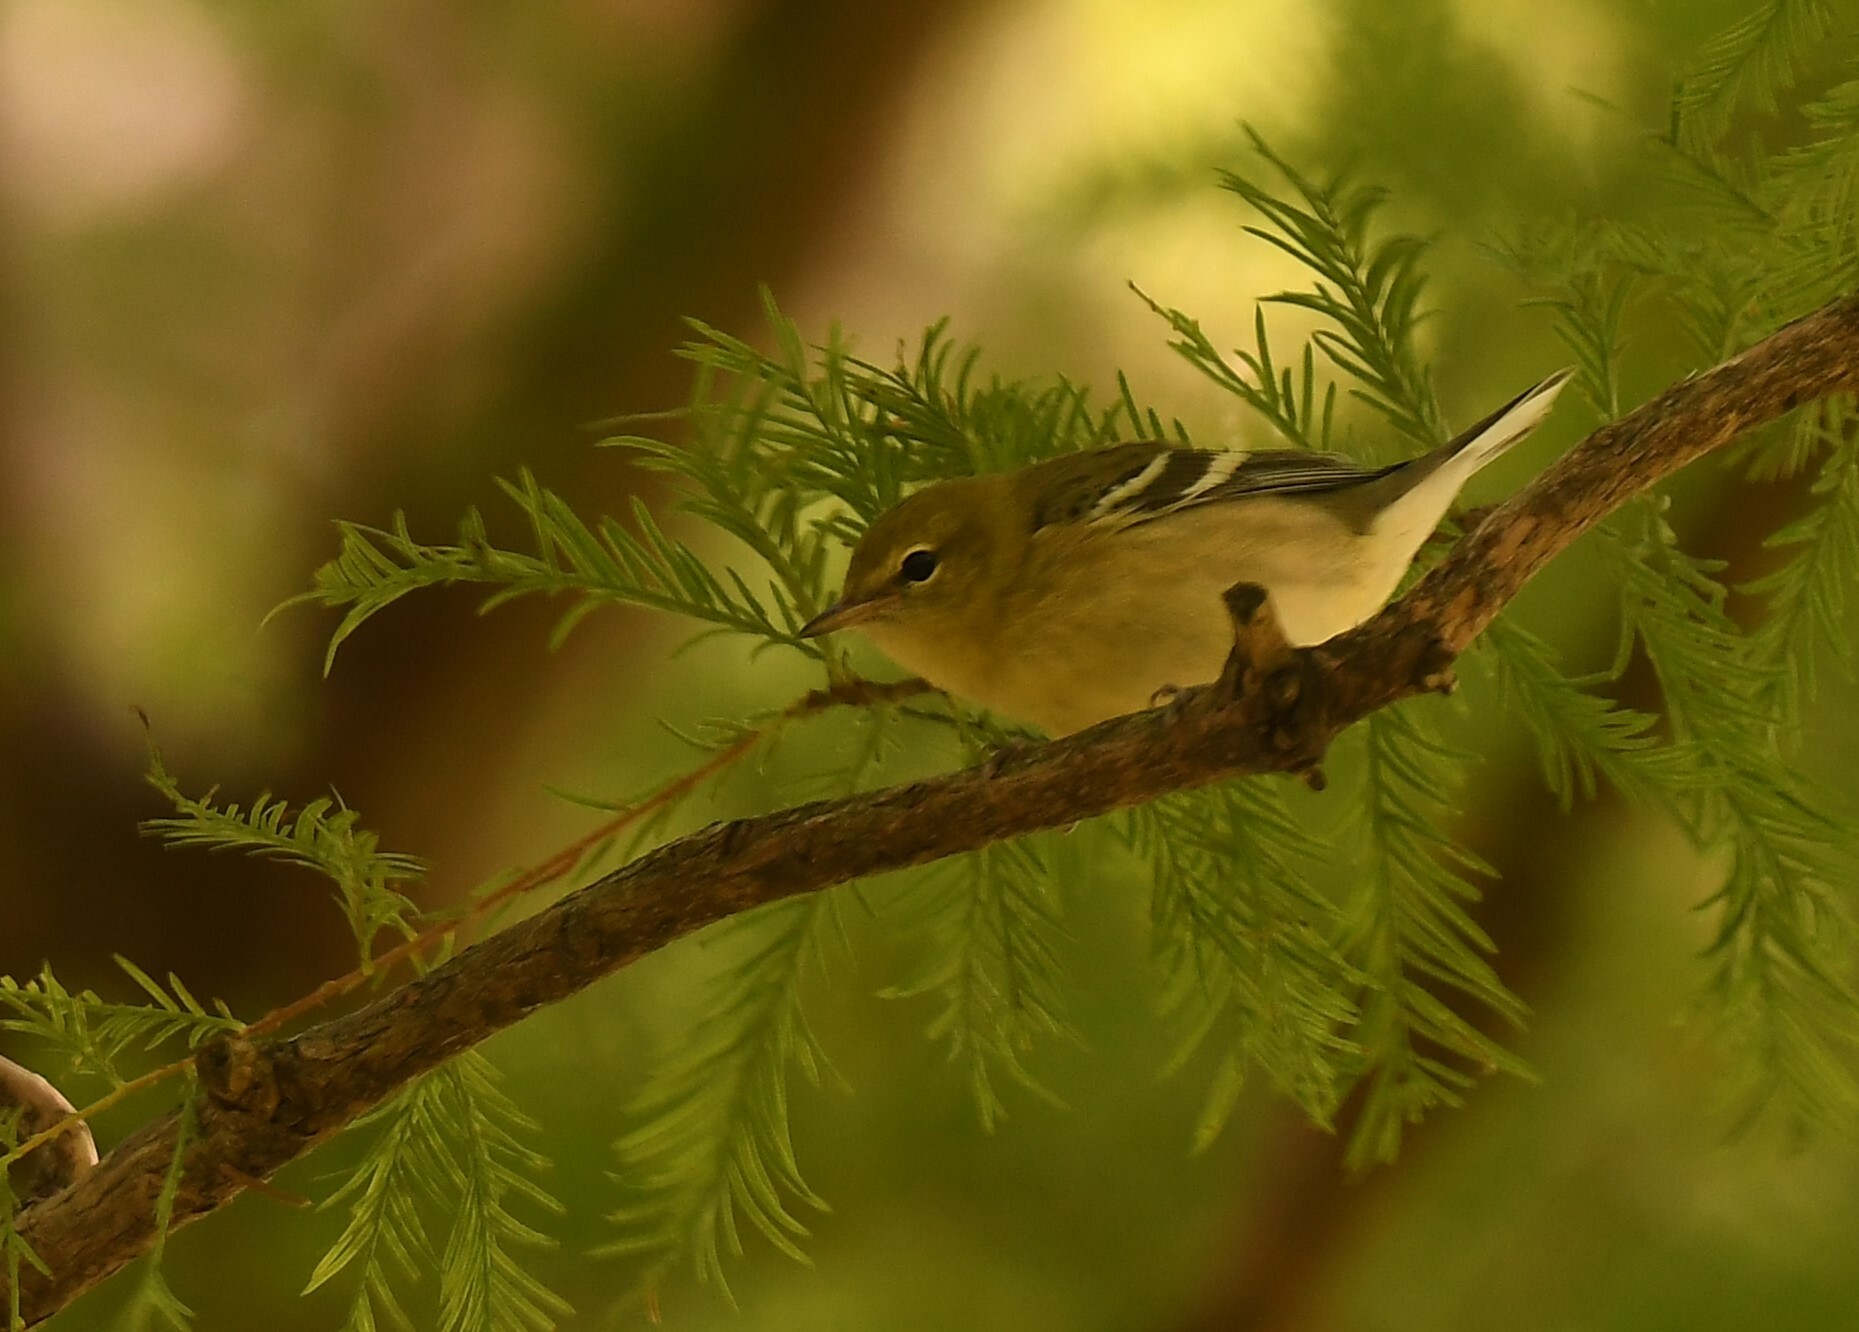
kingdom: Animalia
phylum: Chordata
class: Aves
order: Passeriformes
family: Parulidae
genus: Setophaga
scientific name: Setophaga castanea
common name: Bay-breasted warbler
